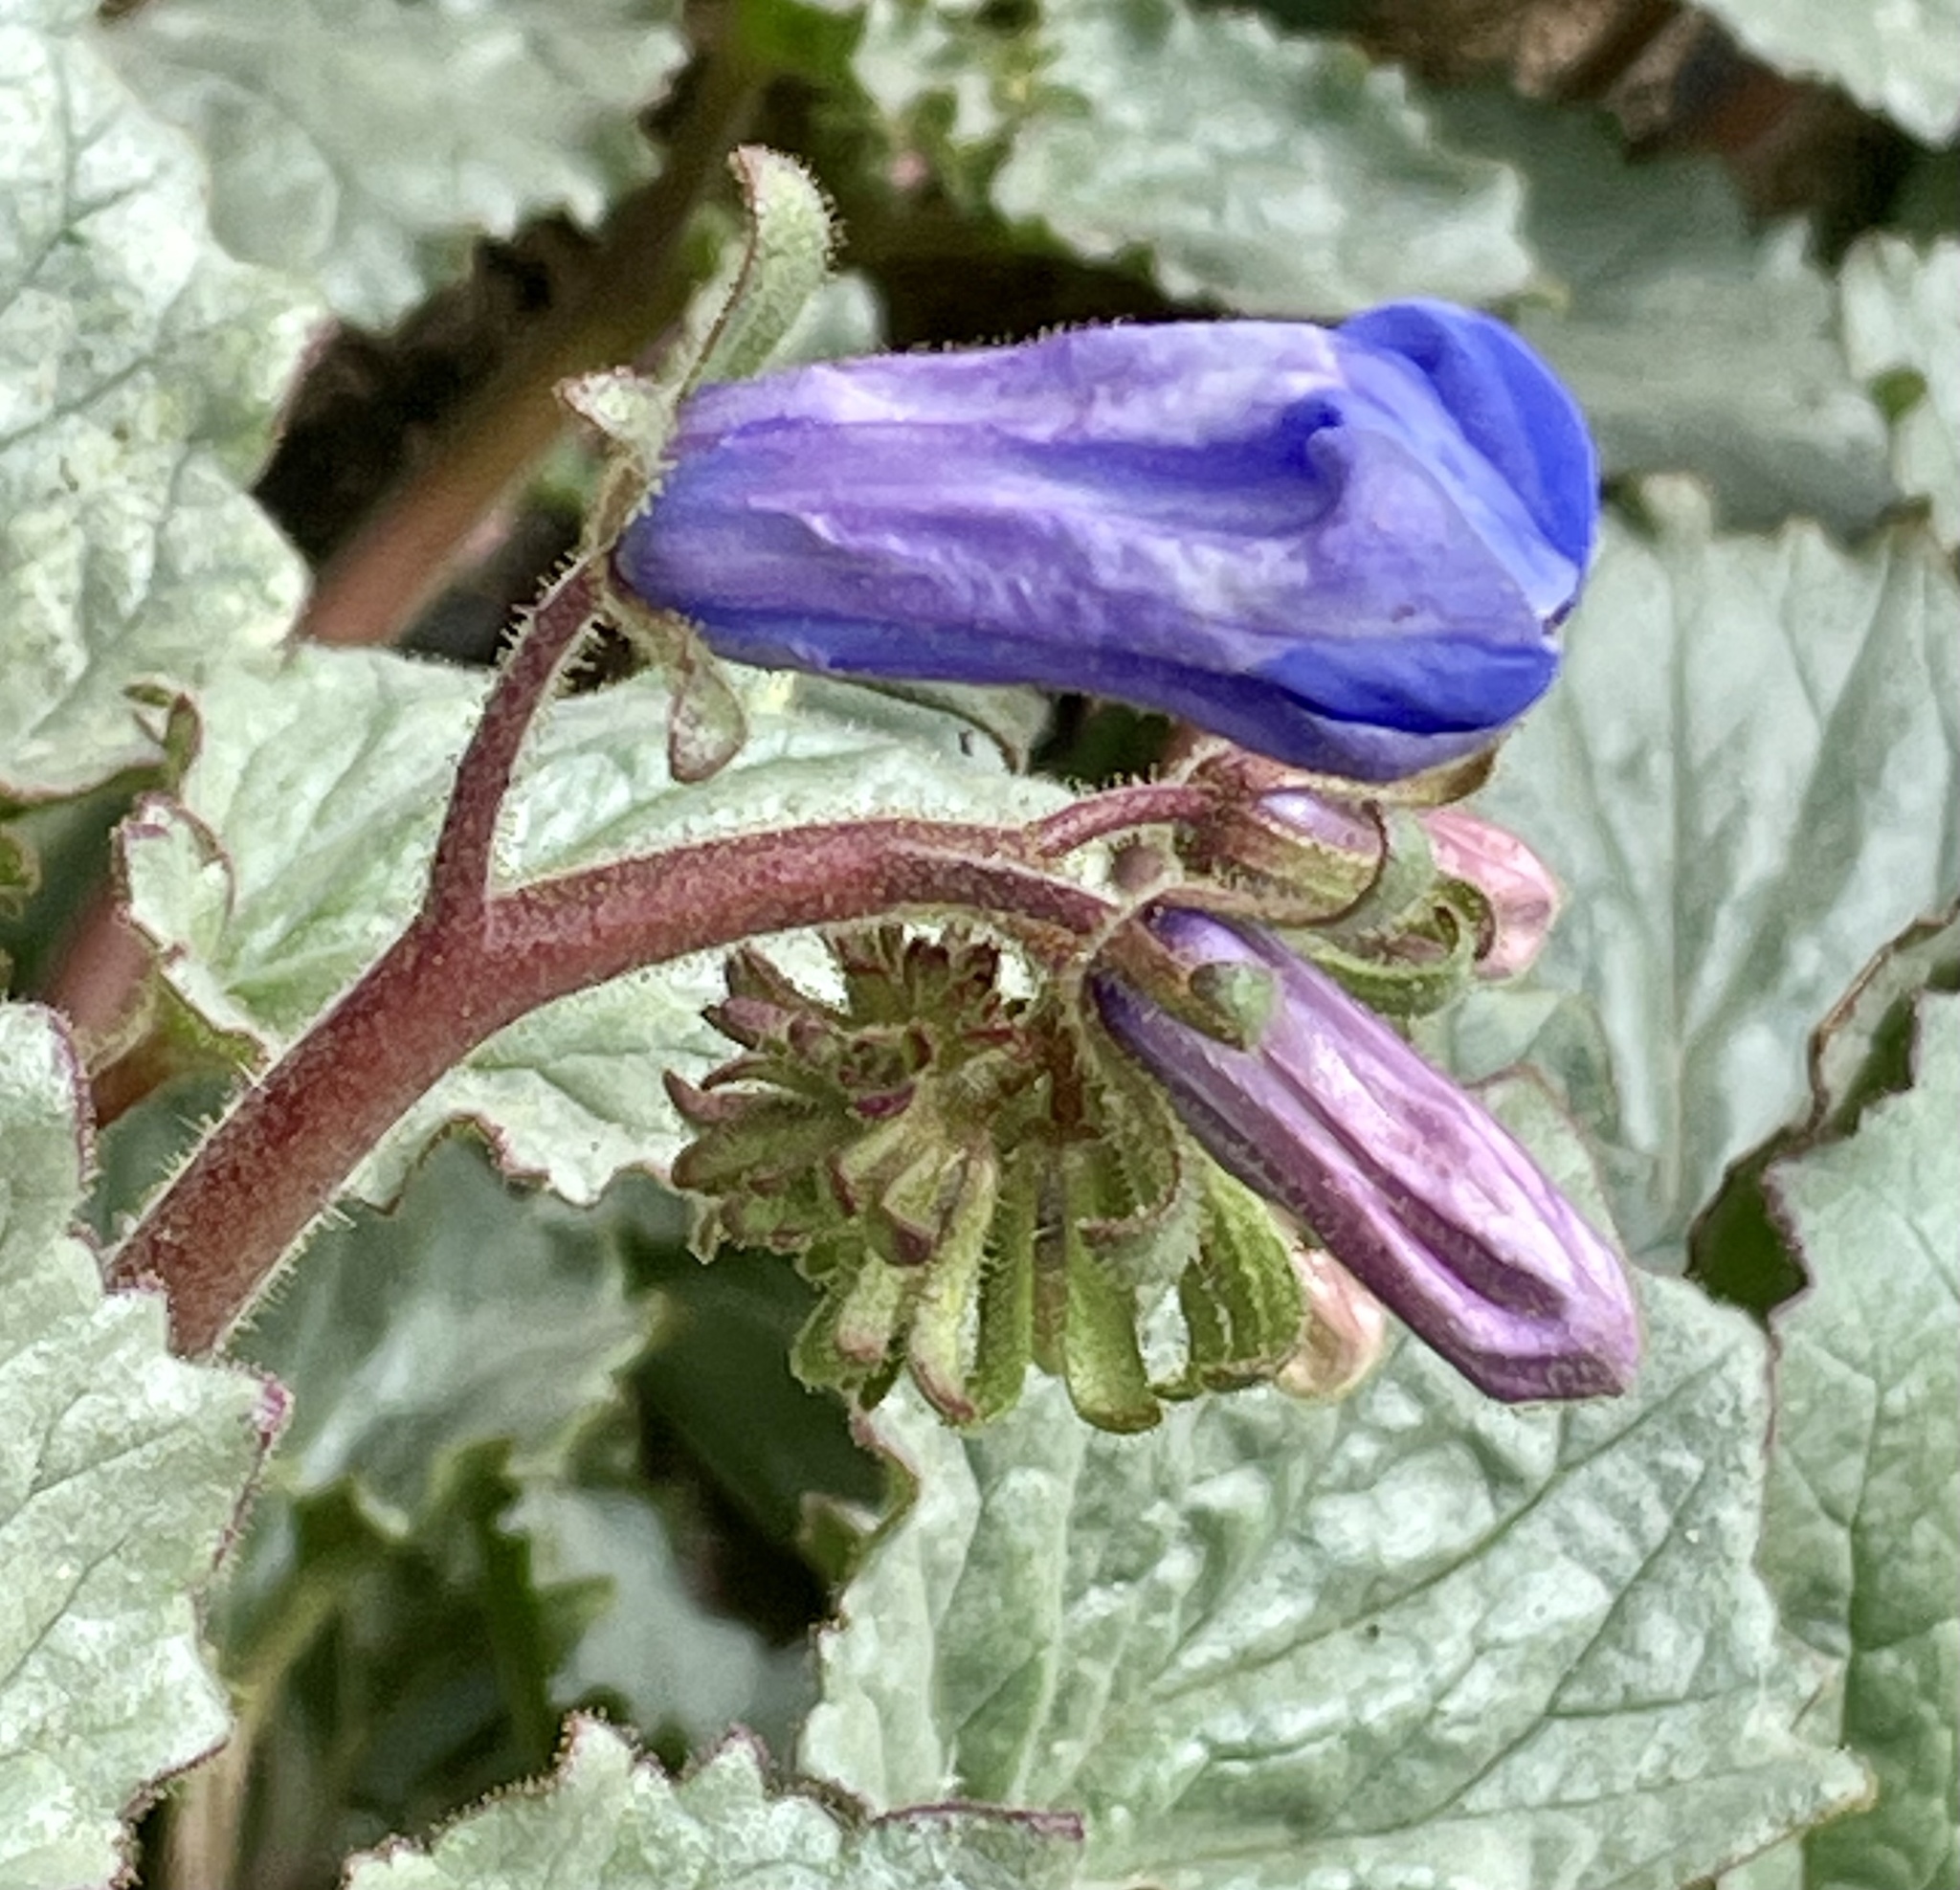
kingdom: Plantae
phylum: Tracheophyta
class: Magnoliopsida
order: Boraginales
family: Hydrophyllaceae
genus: Phacelia
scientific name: Phacelia campanularia
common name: California bluebell
